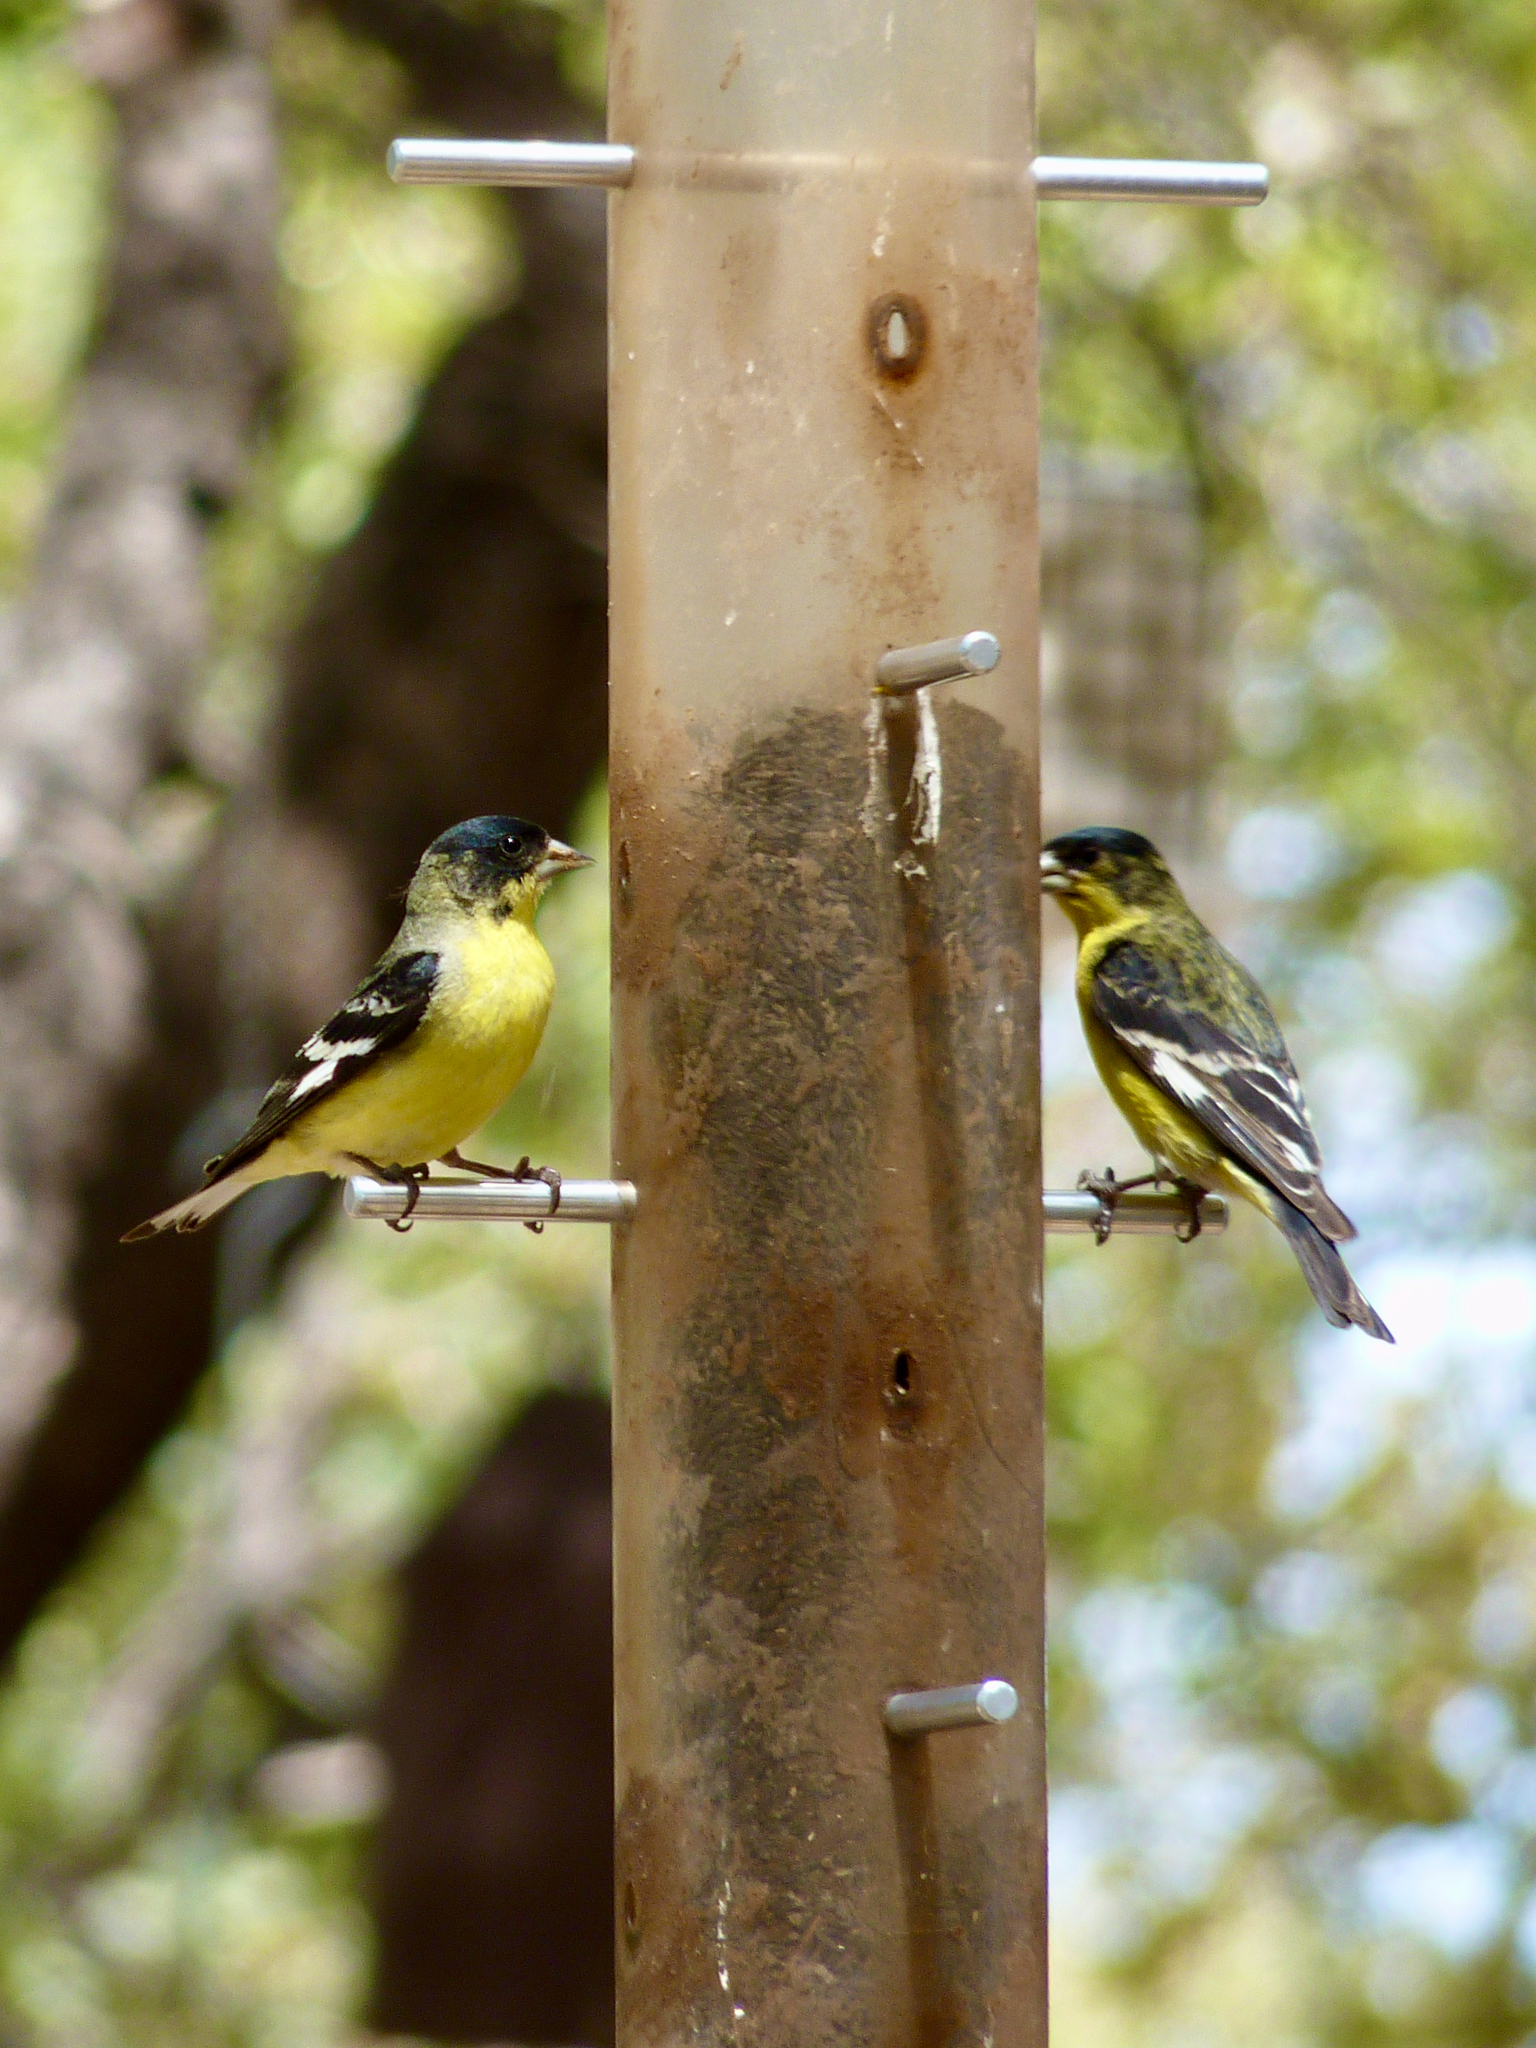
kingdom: Animalia
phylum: Chordata
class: Aves
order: Passeriformes
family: Fringillidae
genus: Spinus
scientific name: Spinus psaltria
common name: Lesser goldfinch
